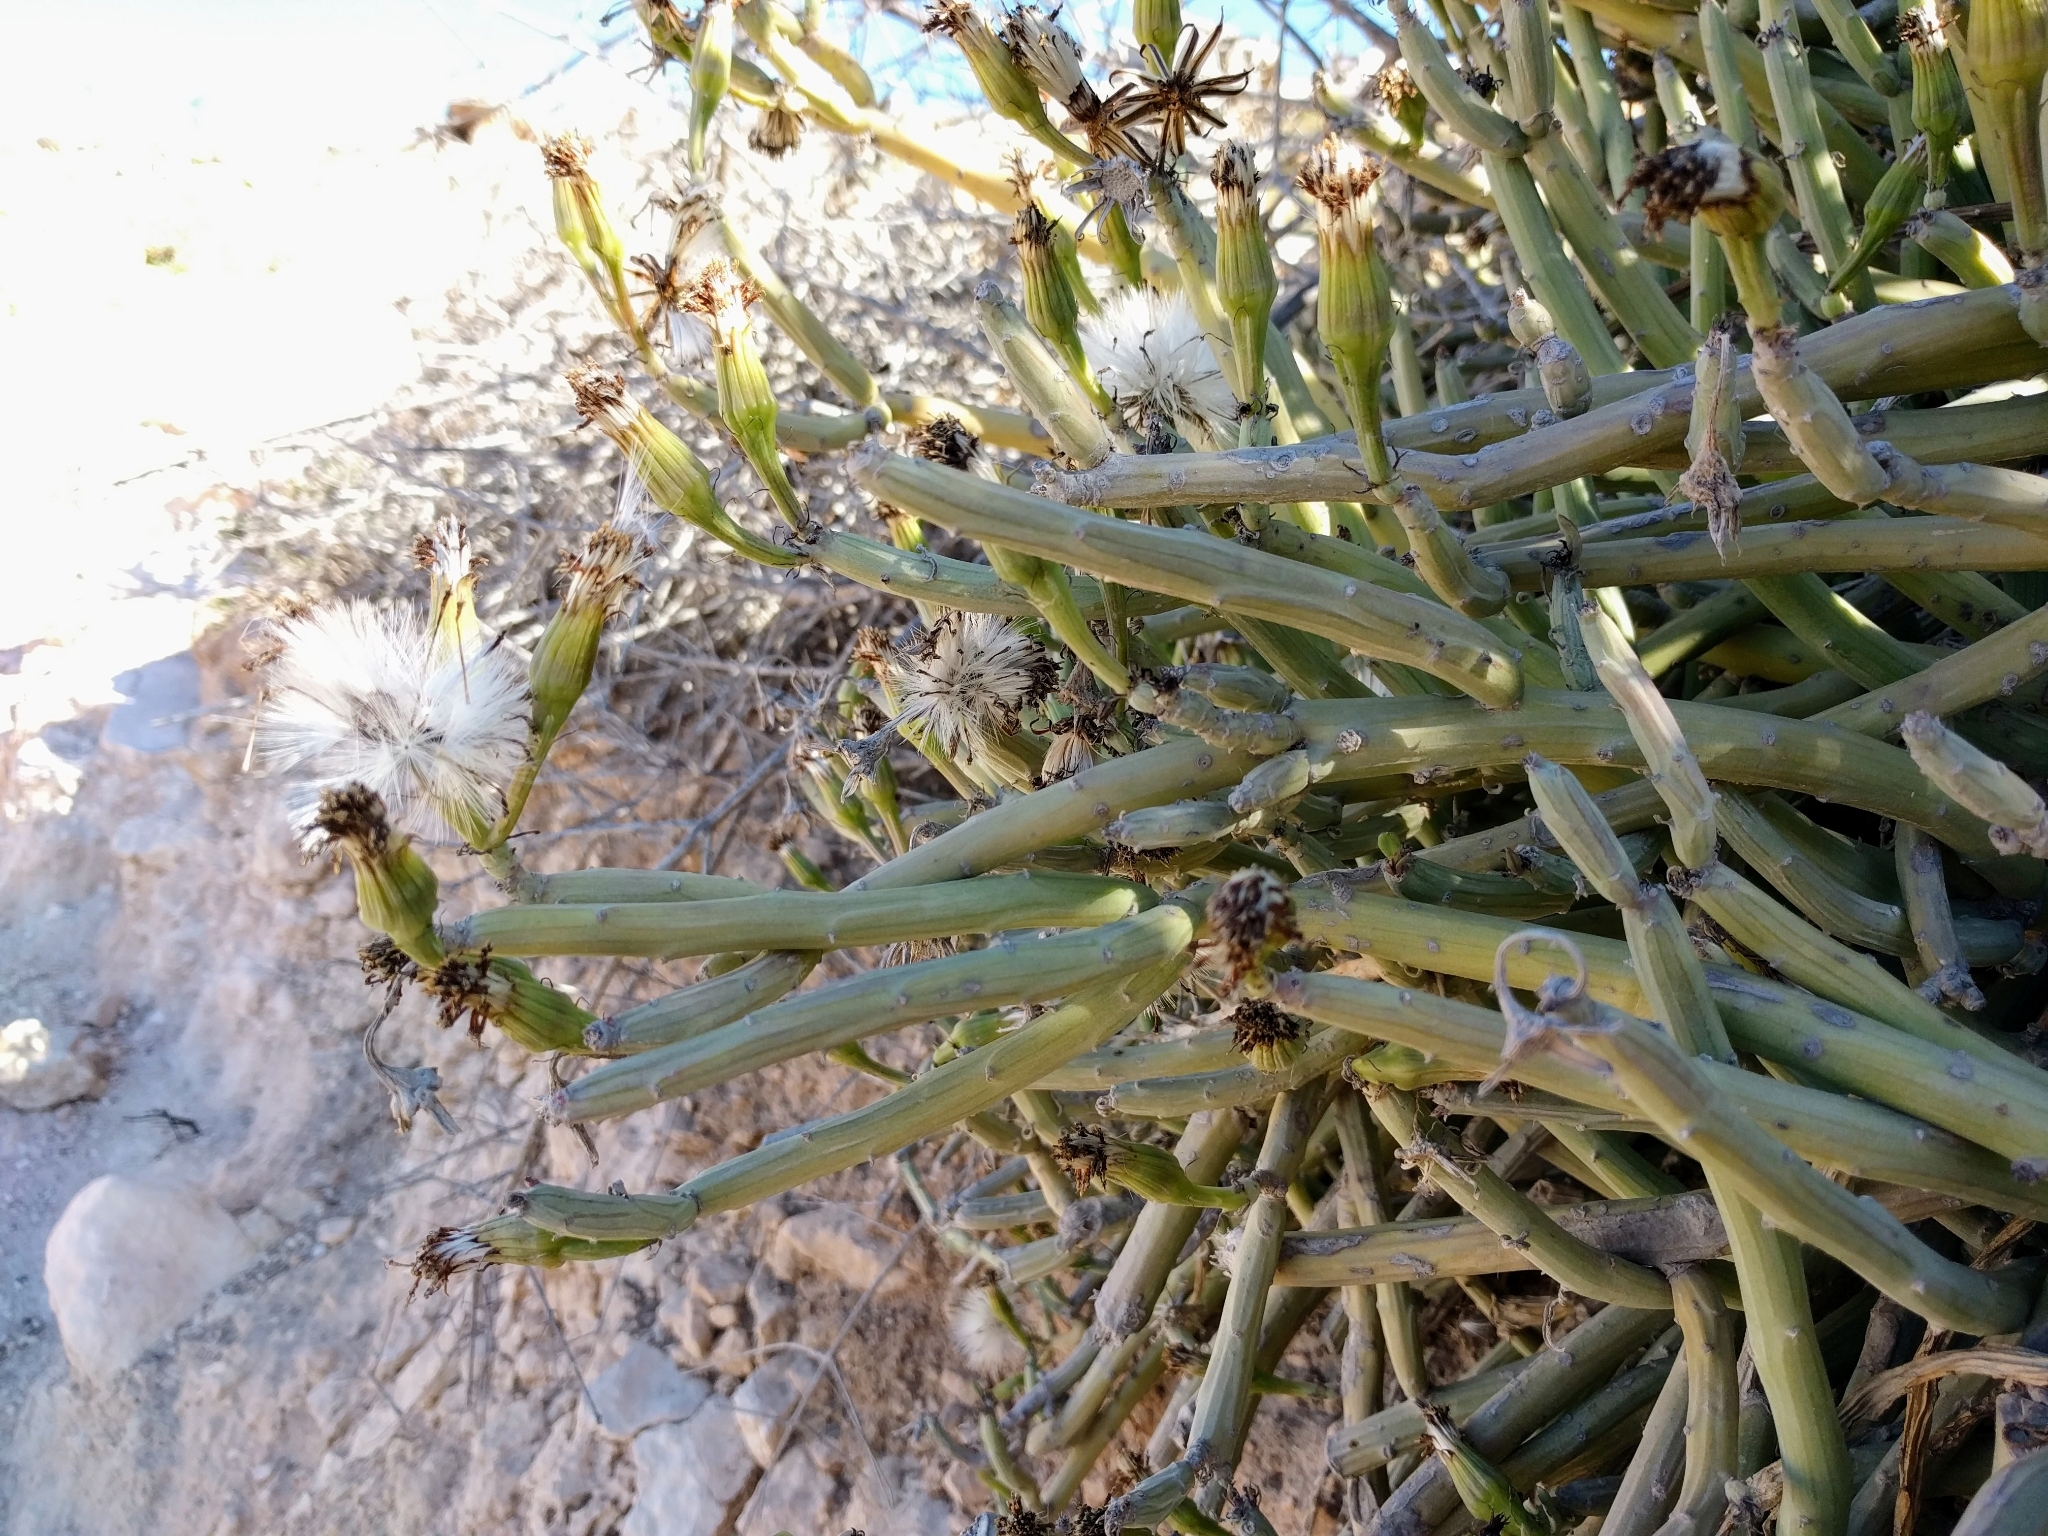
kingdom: Plantae
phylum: Tracheophyta
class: Magnoliopsida
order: Asterales
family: Asteraceae
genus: Kleinia
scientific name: Kleinia anteuphorbium
